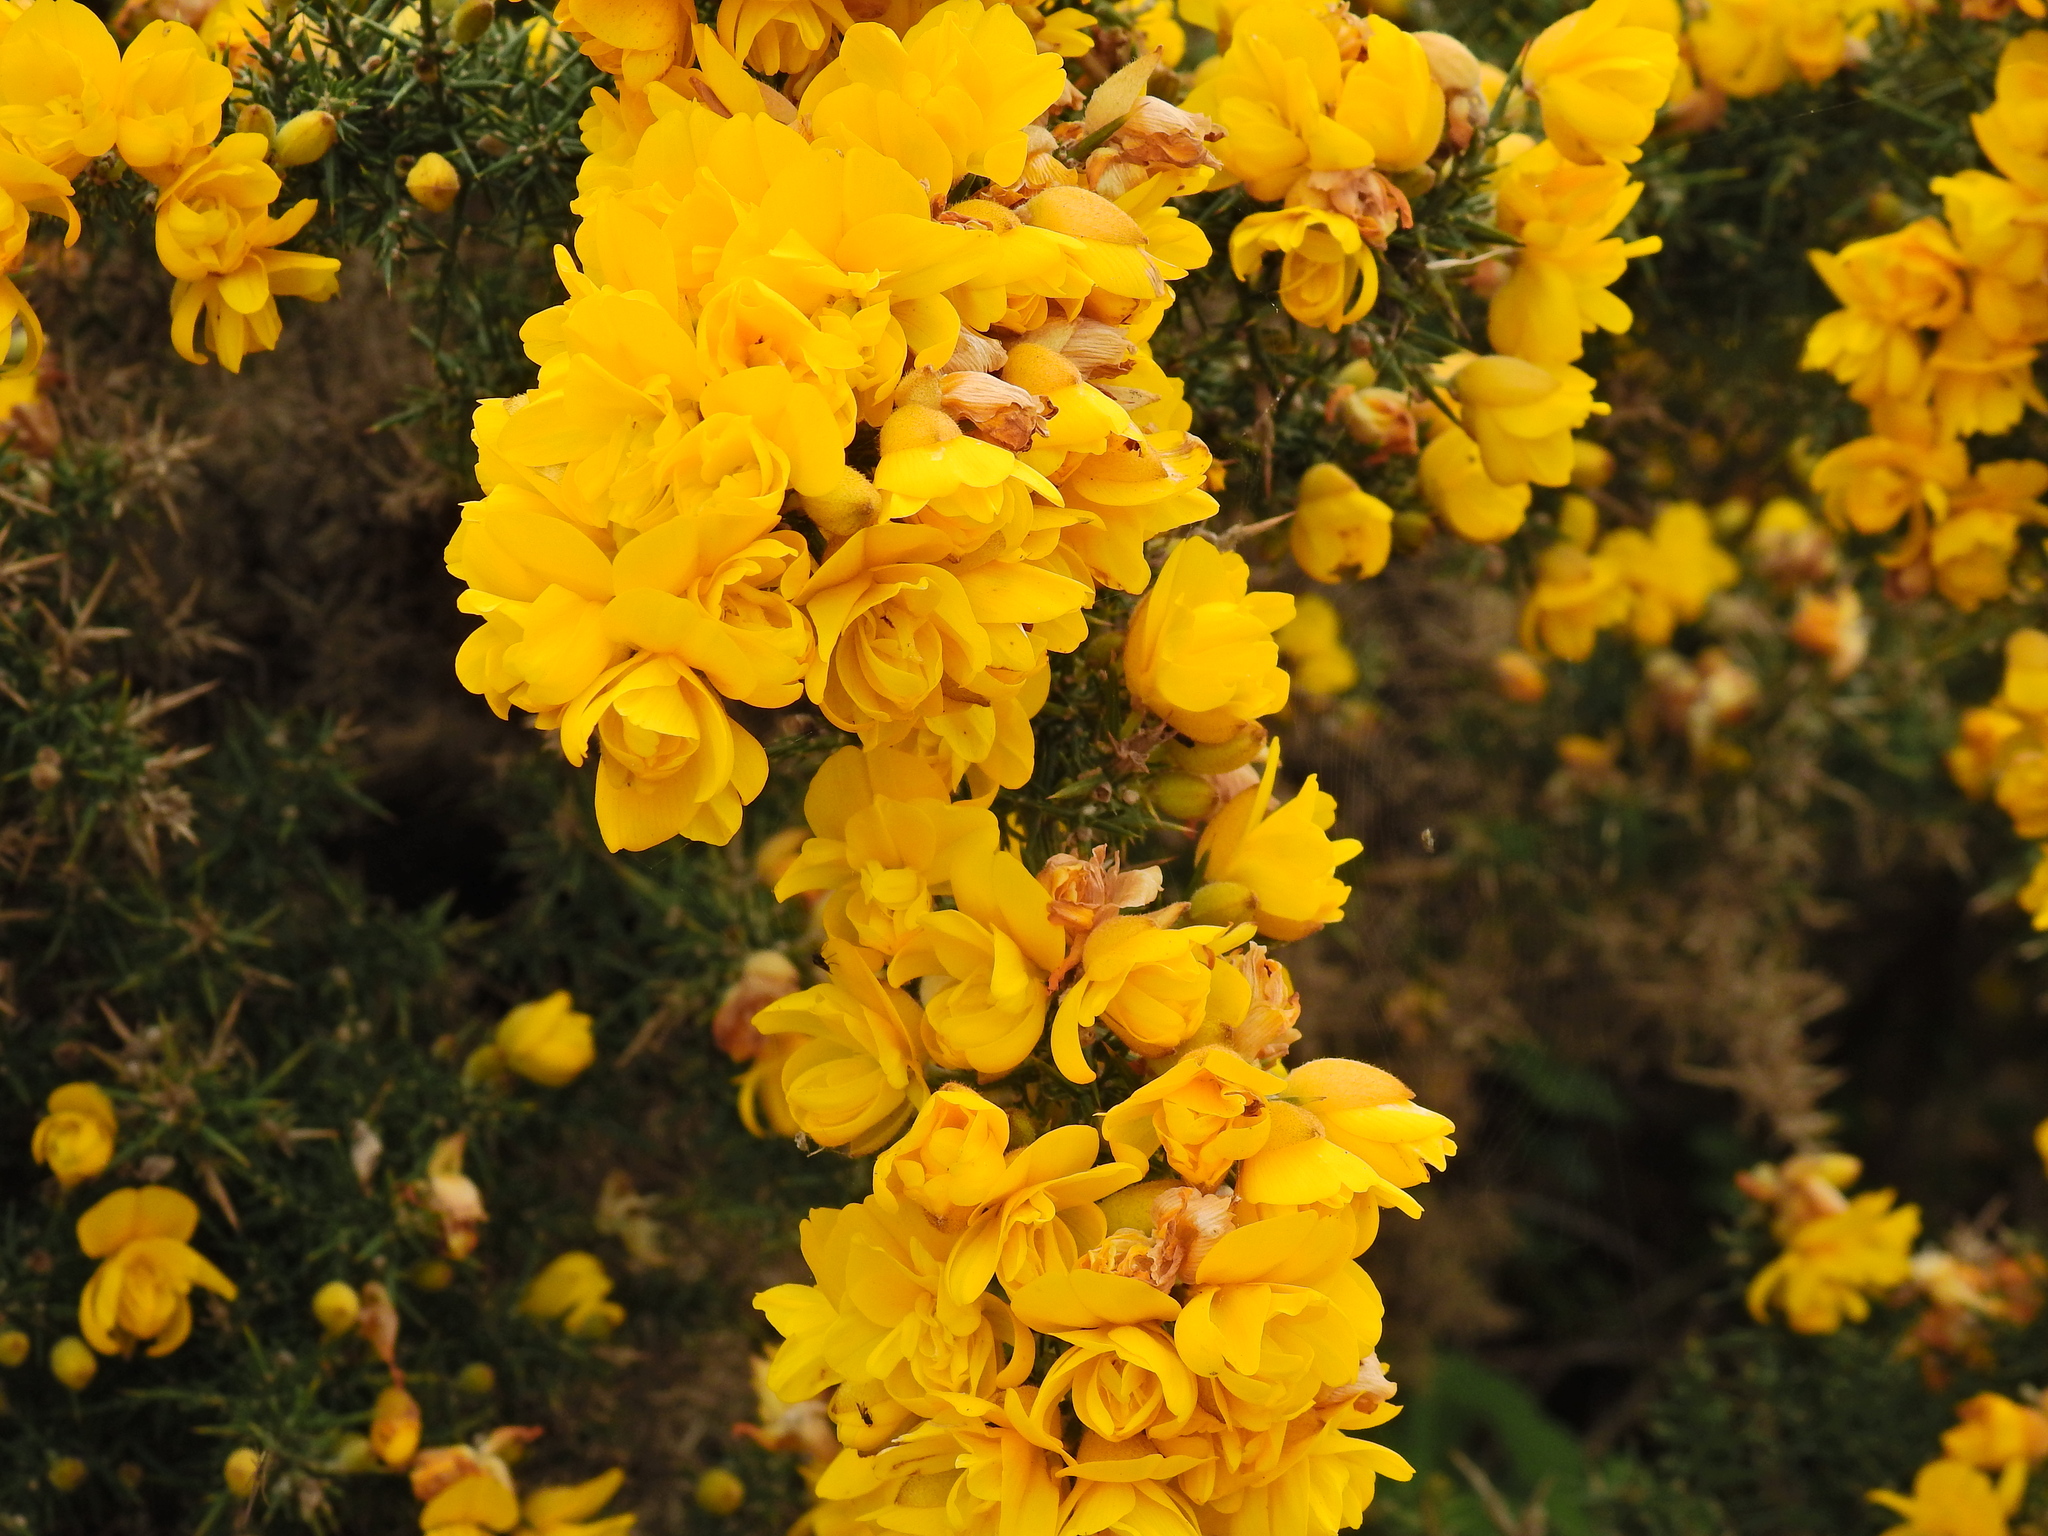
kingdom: Plantae
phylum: Tracheophyta
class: Magnoliopsida
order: Fabales
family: Fabaceae
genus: Ulex
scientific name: Ulex europaeus
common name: Common gorse
